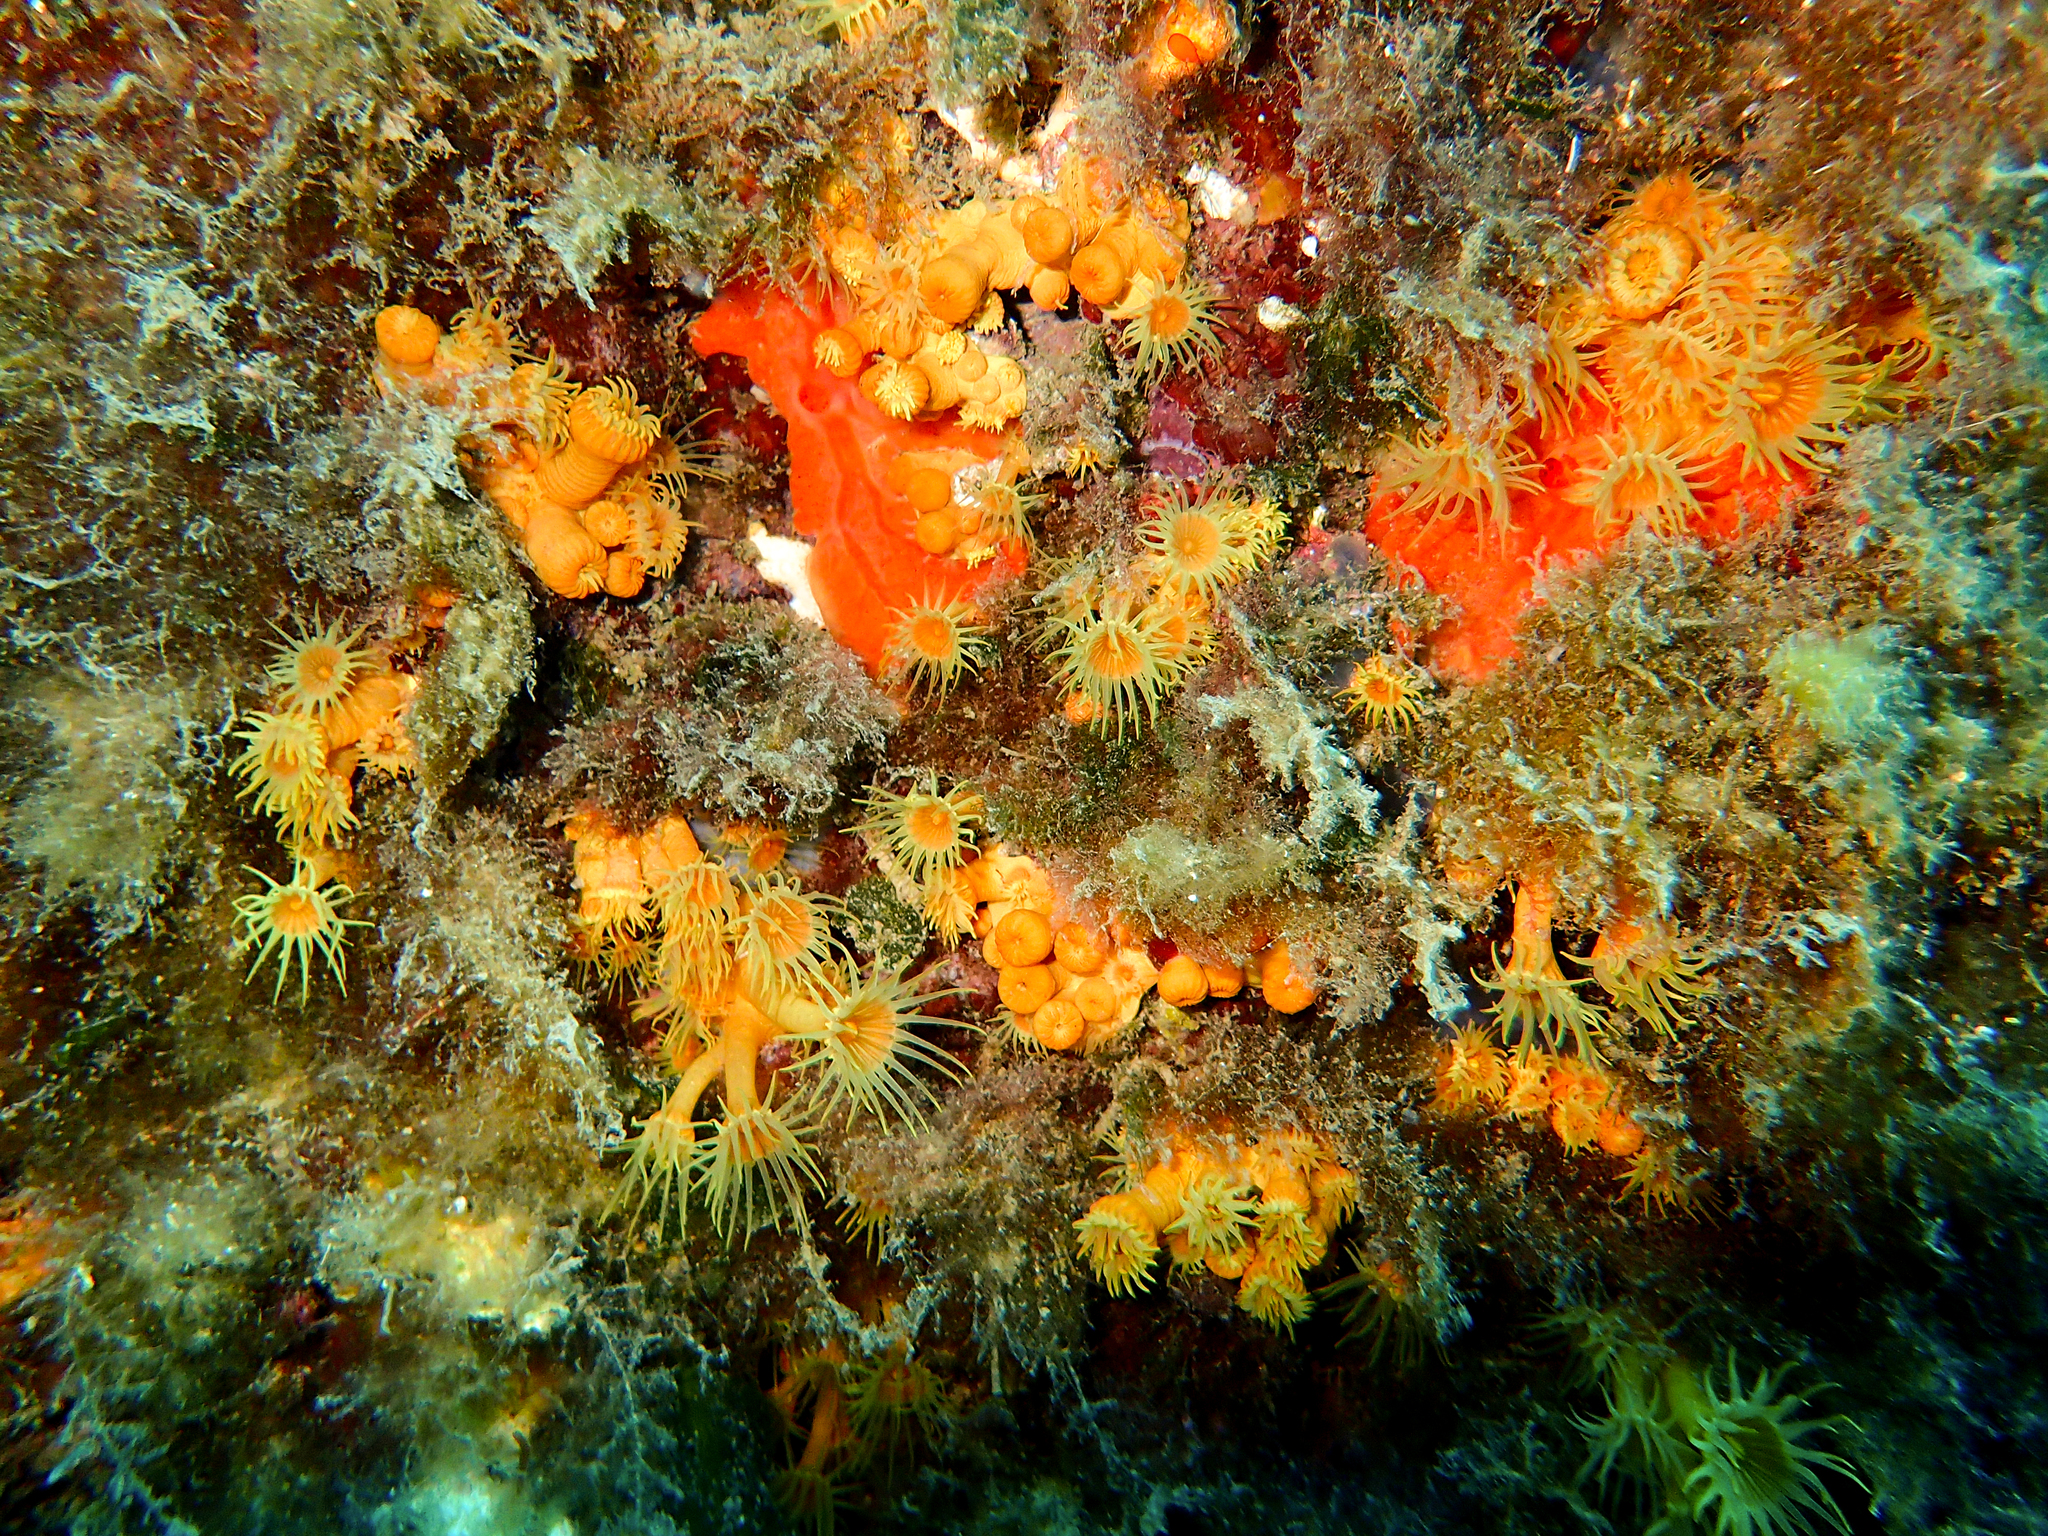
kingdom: Animalia
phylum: Cnidaria
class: Anthozoa
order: Zoantharia
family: Parazoanthidae
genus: Parazoanthus
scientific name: Parazoanthus axinellae
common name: Yellow cluster anemone
